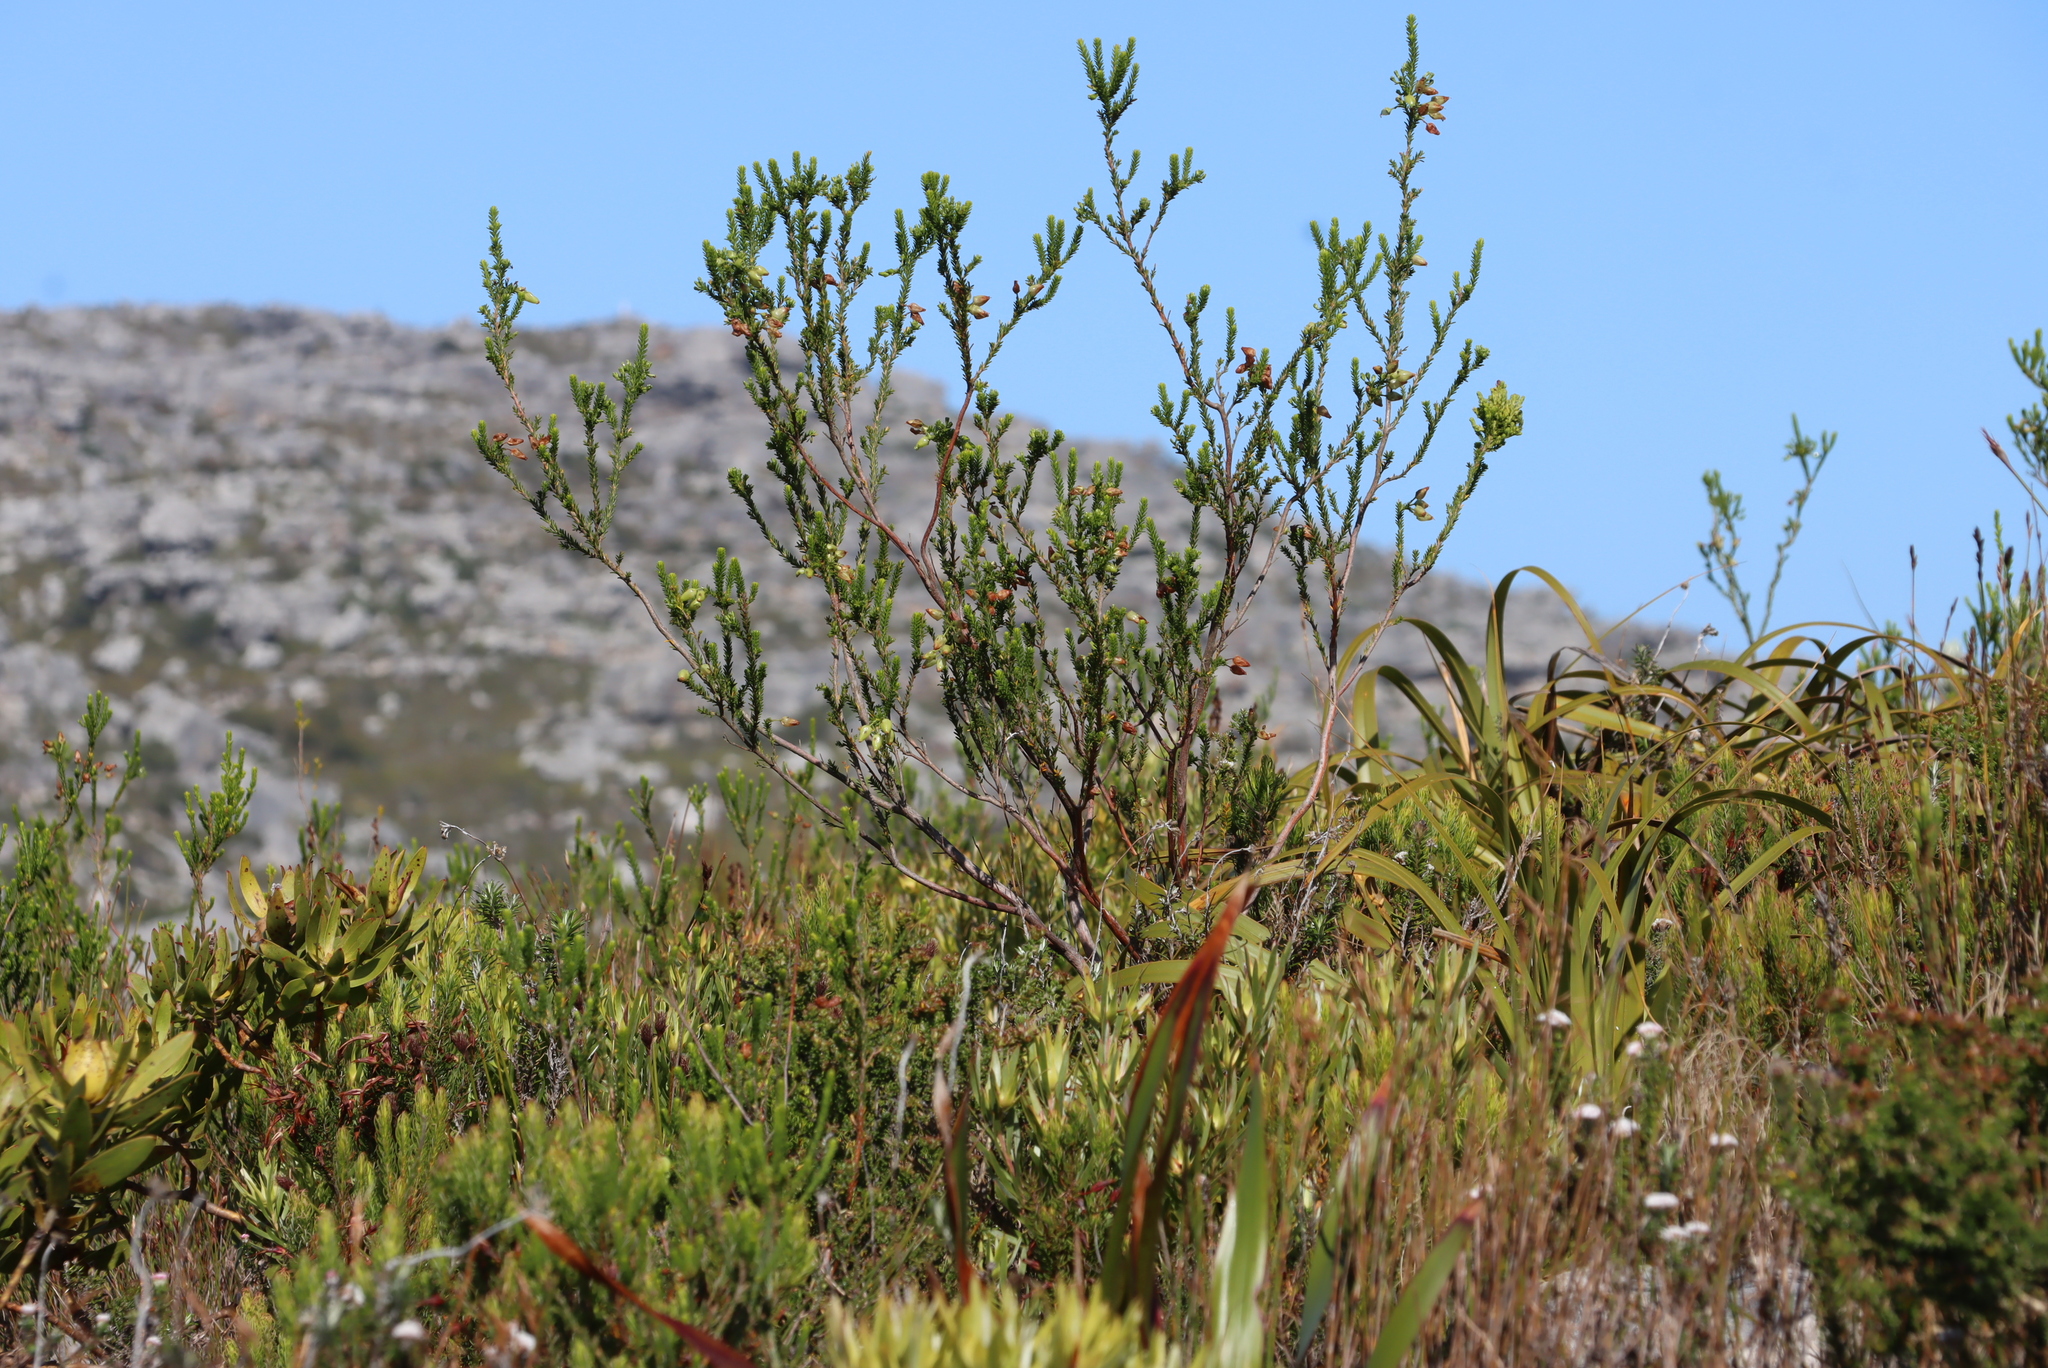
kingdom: Plantae
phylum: Tracheophyta
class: Magnoliopsida
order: Ericales
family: Ericaceae
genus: Erica
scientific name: Erica urna-viridis
